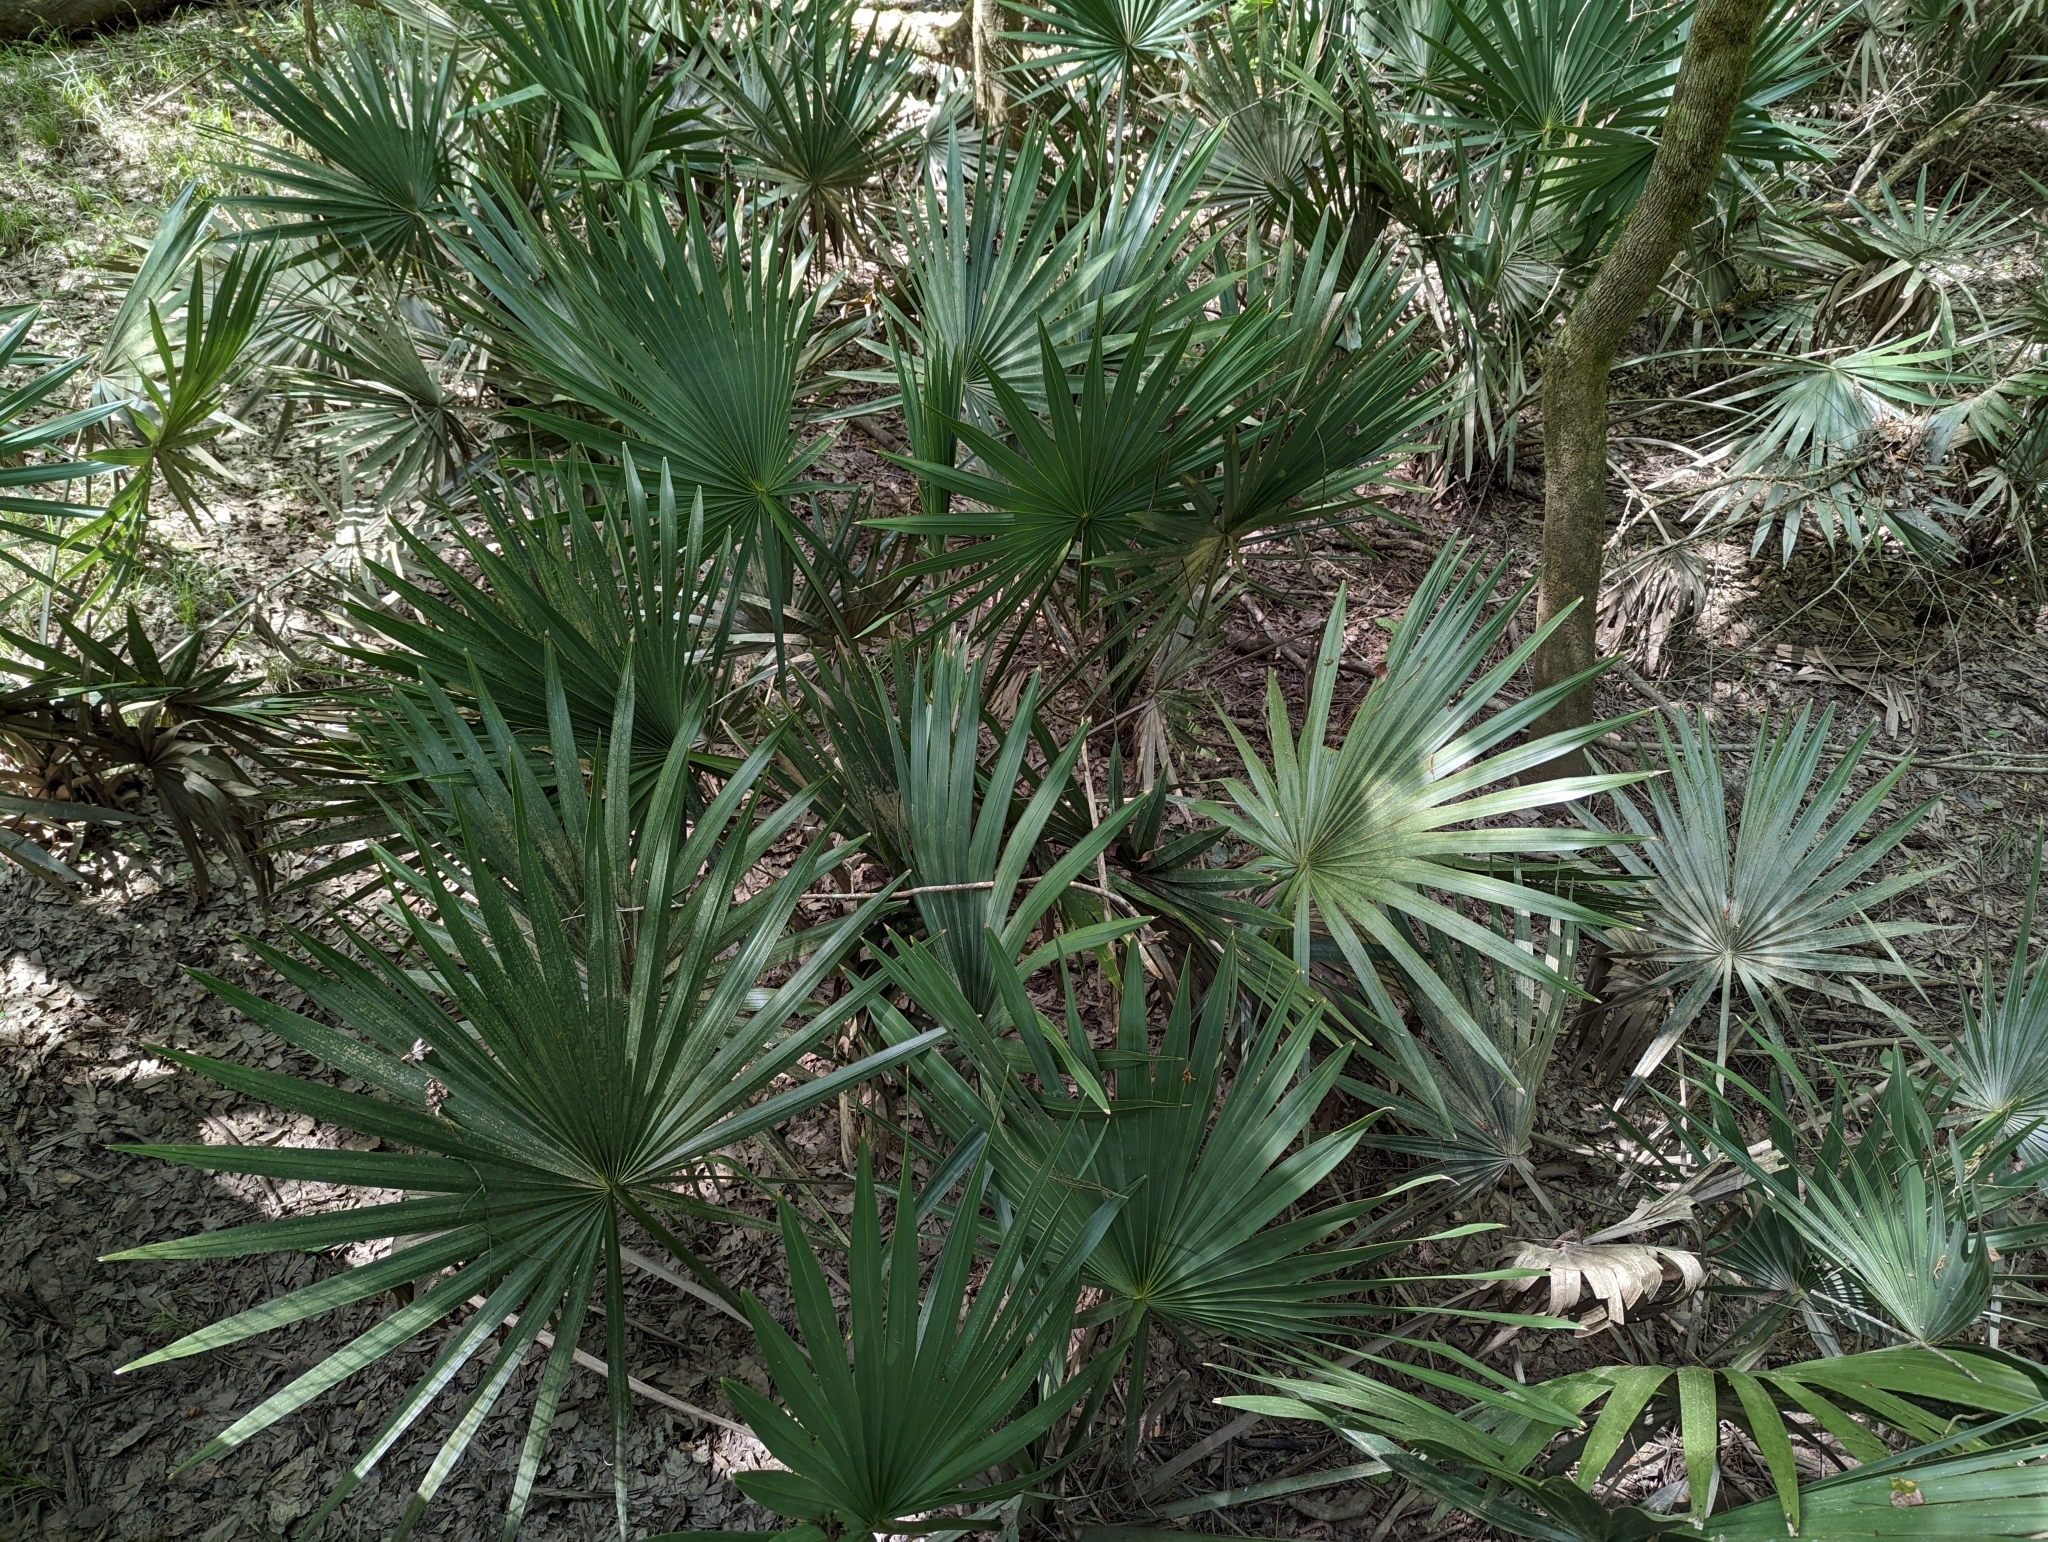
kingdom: Plantae
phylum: Tracheophyta
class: Liliopsida
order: Arecales
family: Arecaceae
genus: Sabal
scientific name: Sabal minor
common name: Dwarf palmetto
